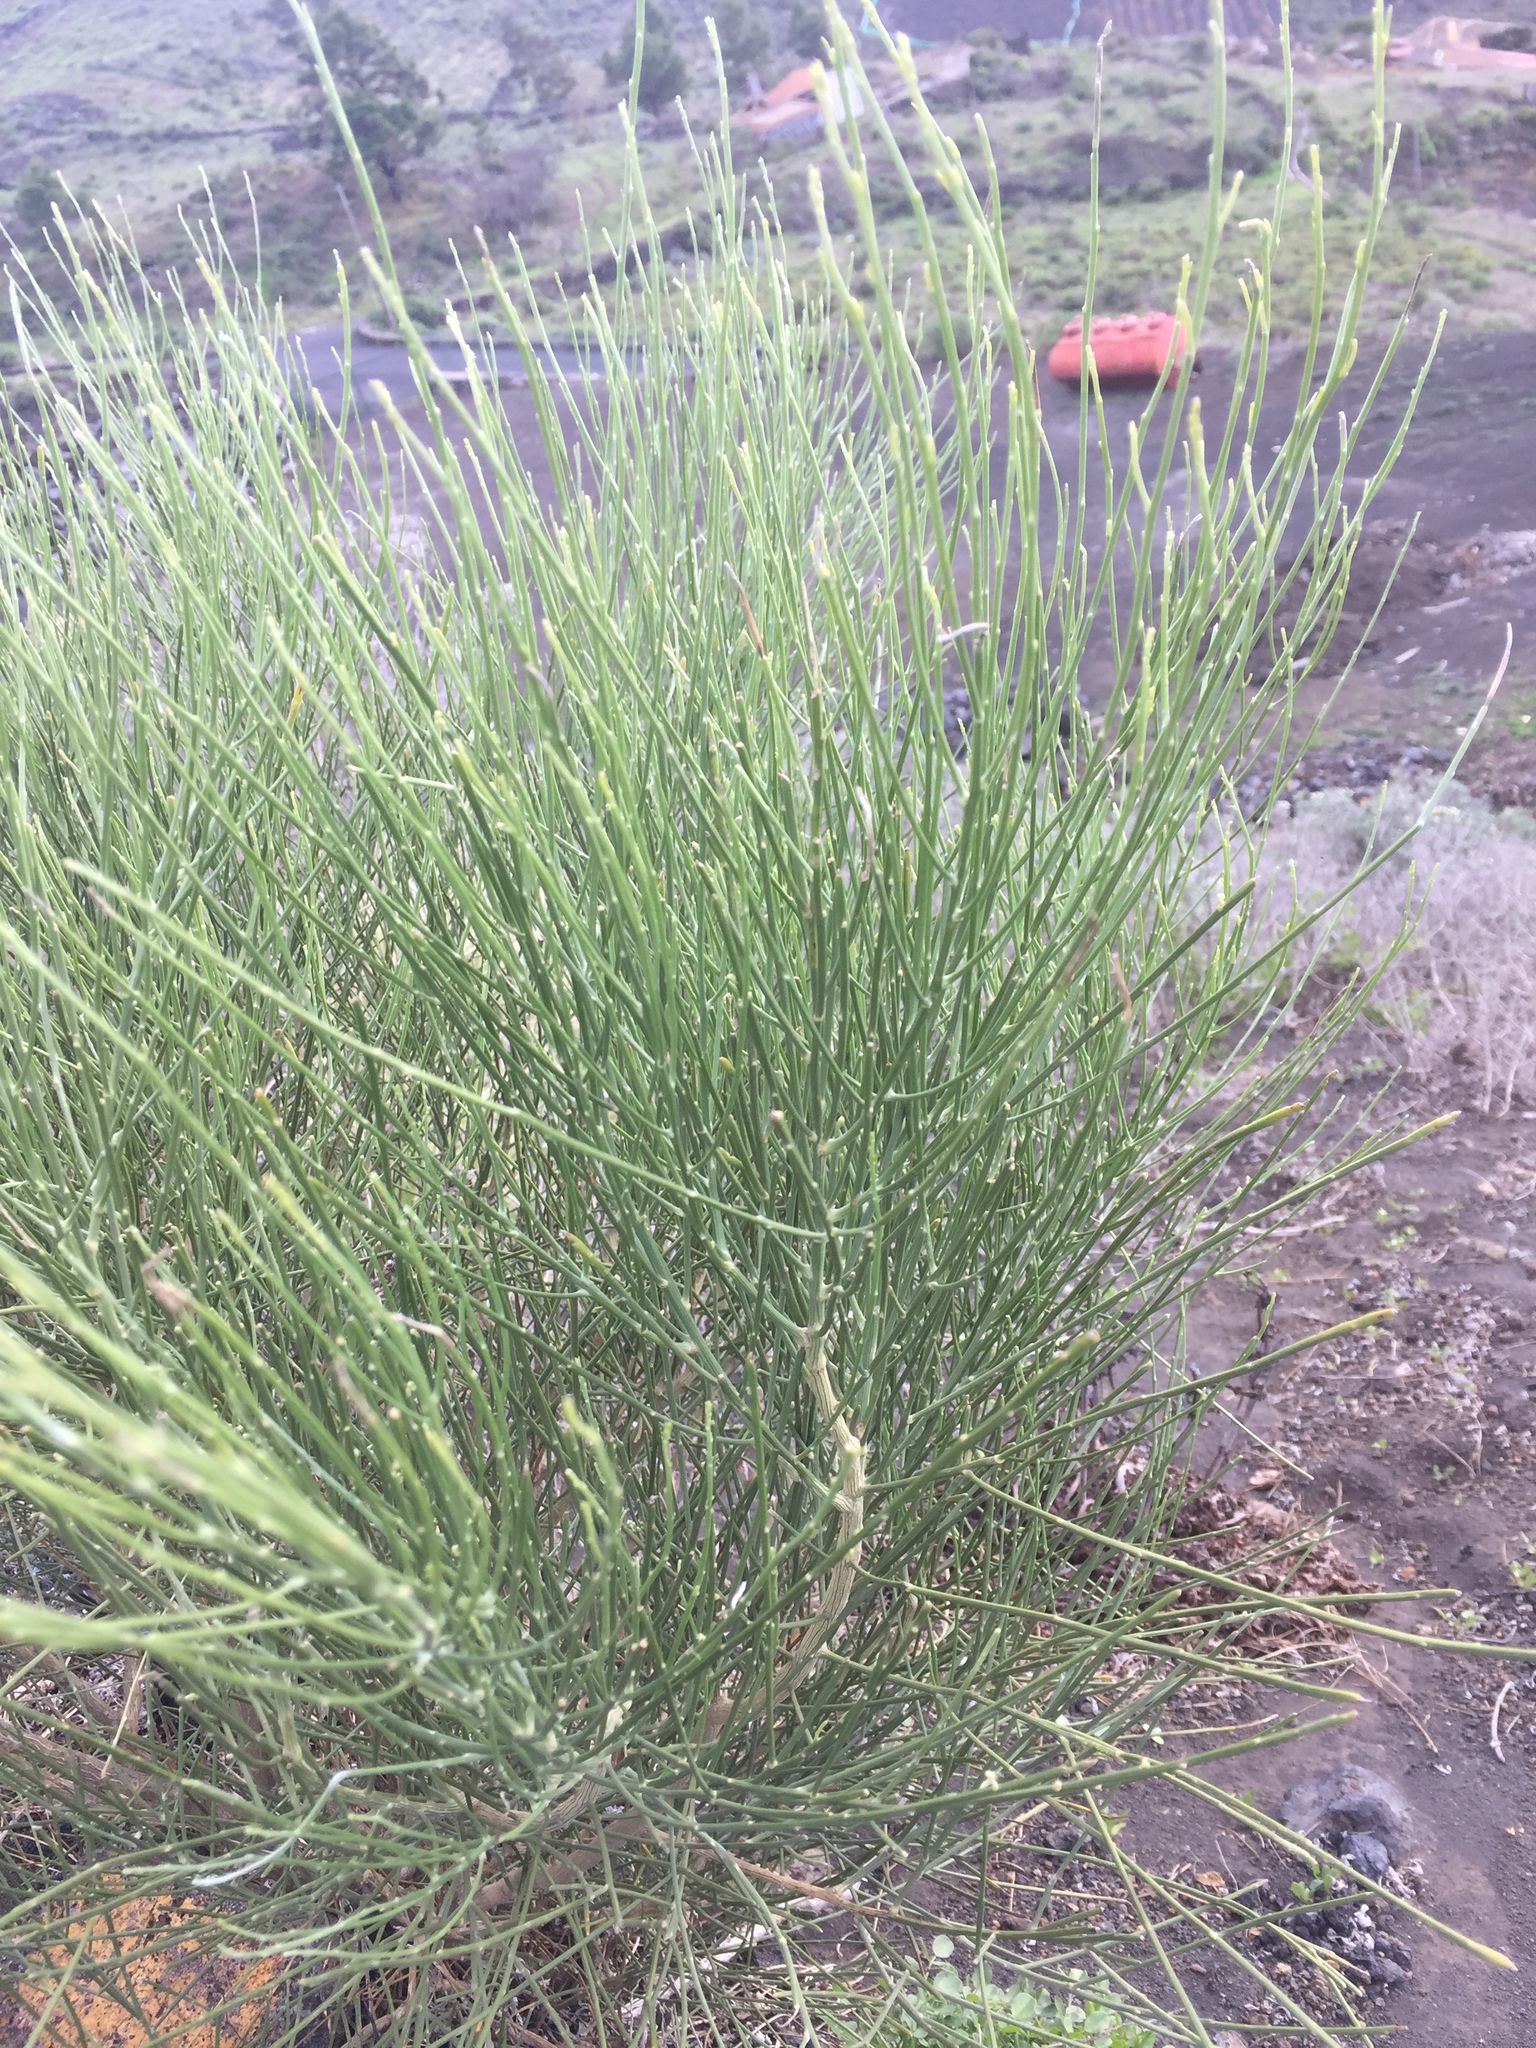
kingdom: Plantae
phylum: Tracheophyta
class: Magnoliopsida
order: Fabales
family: Fabaceae
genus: Spartium
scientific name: Spartium junceum
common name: Spanish broom
